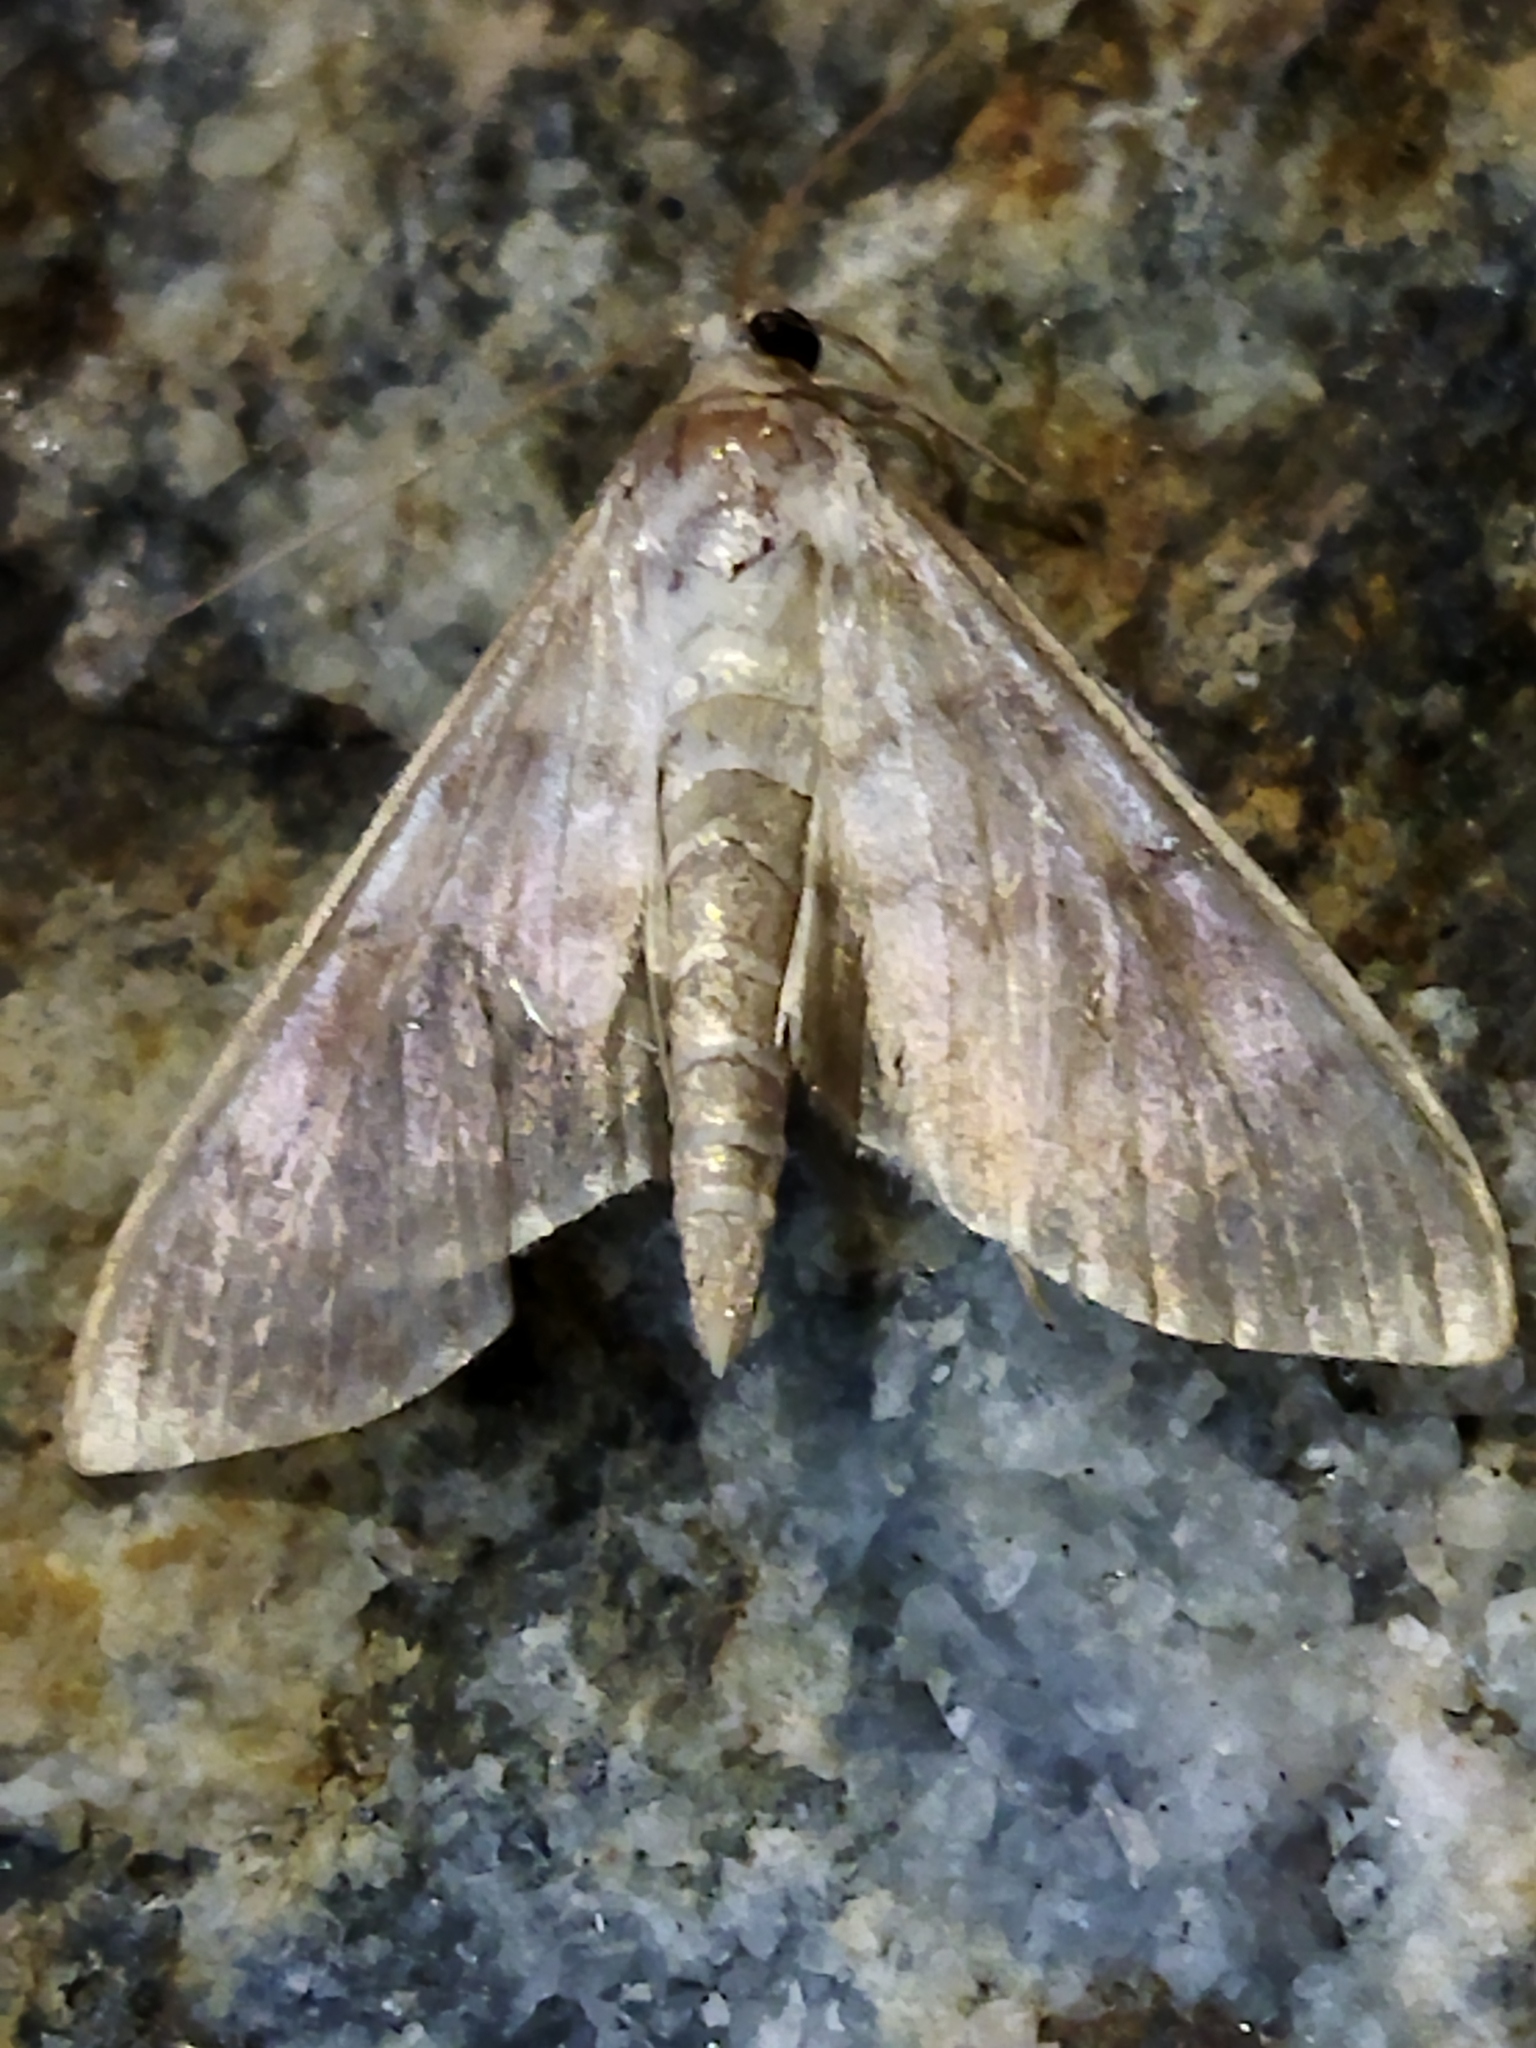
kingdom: Animalia
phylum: Arthropoda
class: Insecta
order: Lepidoptera
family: Crambidae
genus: Patania
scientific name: Patania ruralis
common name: Mother of pearl
